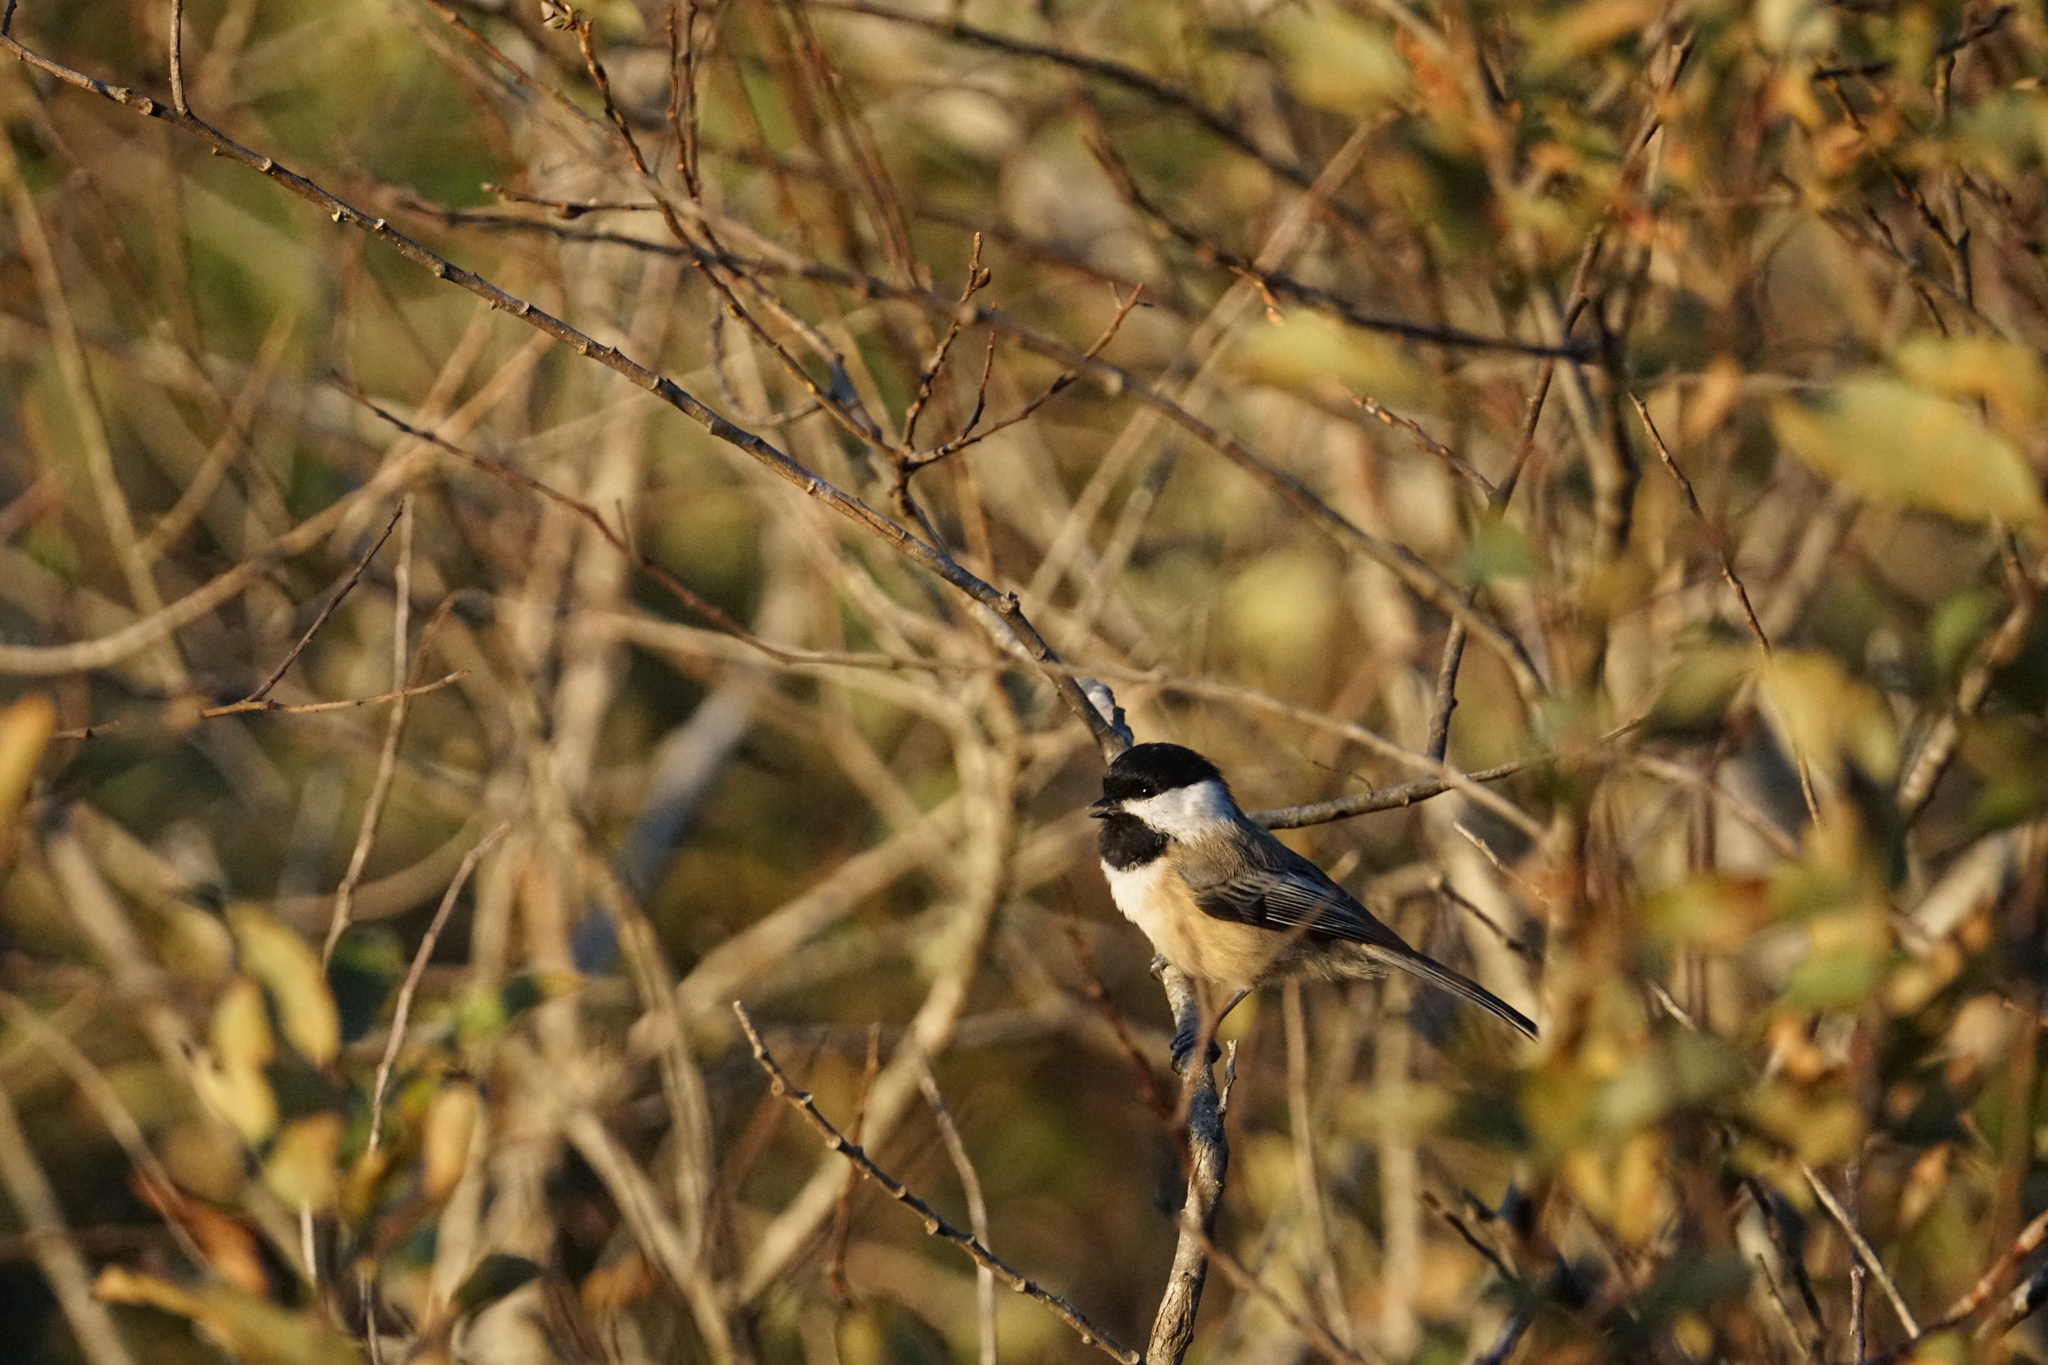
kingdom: Animalia
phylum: Chordata
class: Aves
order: Passeriformes
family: Paridae
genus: Poecile
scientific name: Poecile atricapillus
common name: Black-capped chickadee
